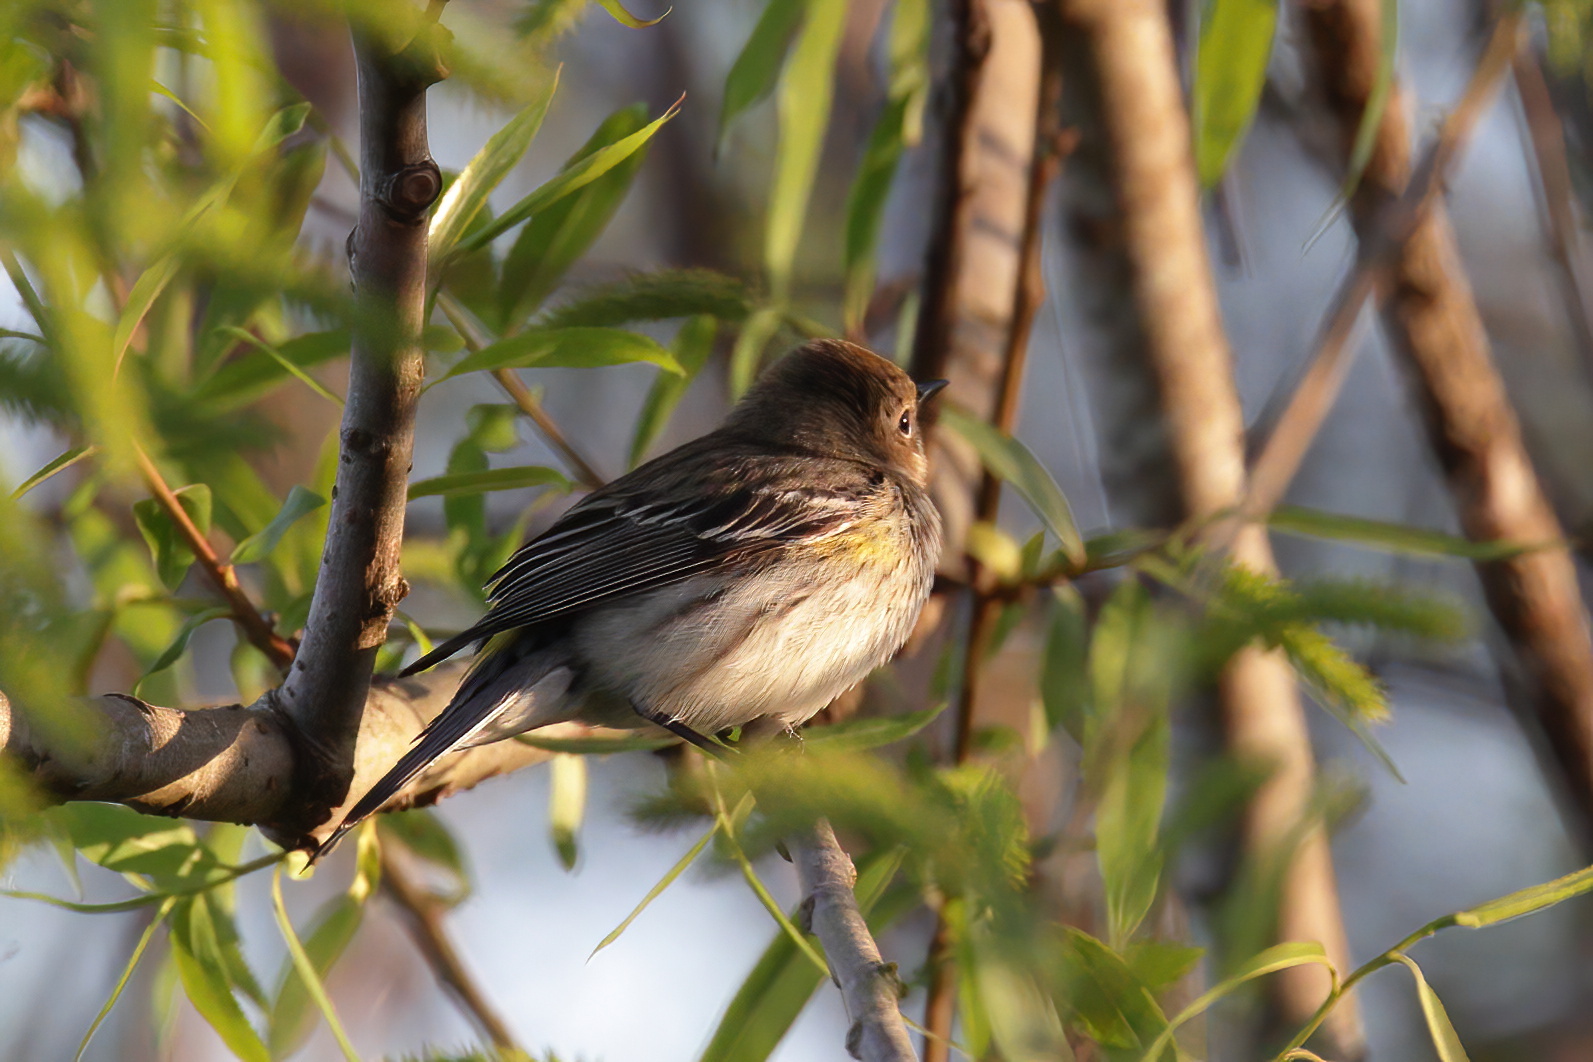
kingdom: Animalia
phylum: Chordata
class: Aves
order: Passeriformes
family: Parulidae
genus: Setophaga
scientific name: Setophaga coronata
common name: Myrtle warbler
